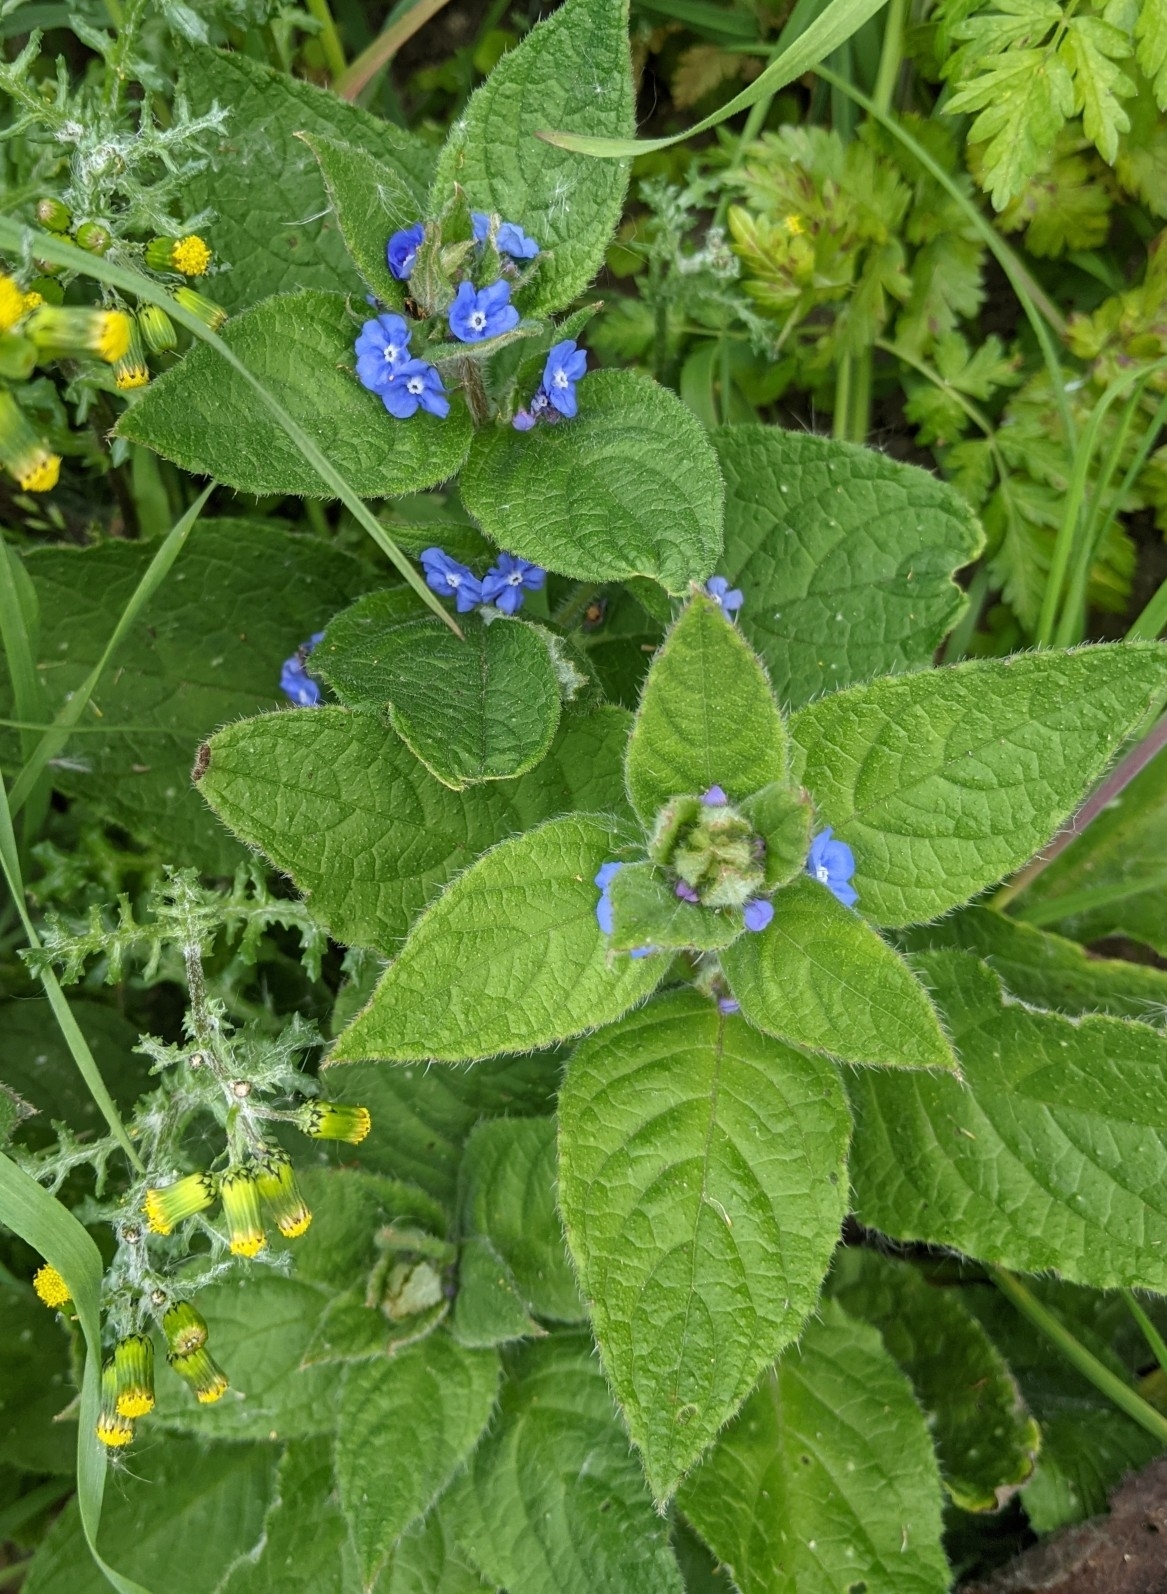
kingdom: Plantae
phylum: Tracheophyta
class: Magnoliopsida
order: Boraginales
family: Boraginaceae
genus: Pentaglottis
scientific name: Pentaglottis sempervirens
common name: Green alkanet
